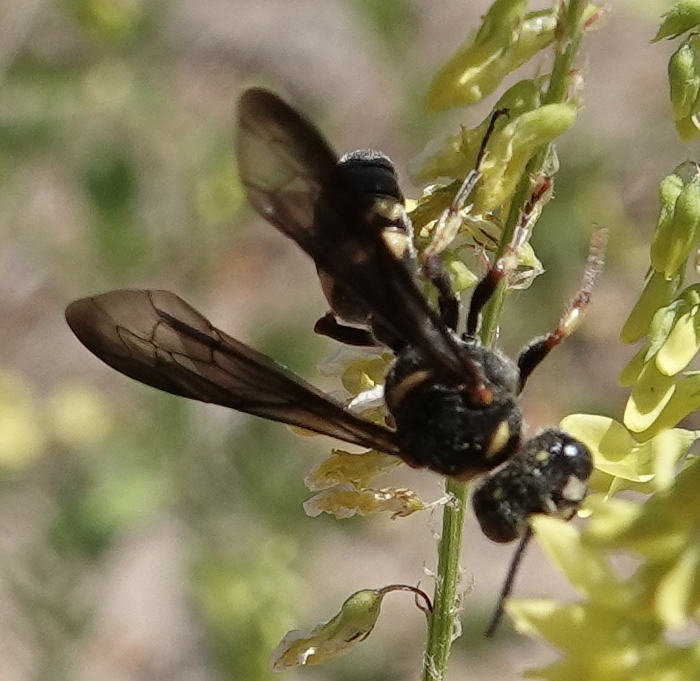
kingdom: Animalia
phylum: Arthropoda
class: Insecta
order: Hymenoptera
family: Crabronidae
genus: Cerceris
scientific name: Cerceris fumipennis
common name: Smokey-winged beetle bandit wasp
